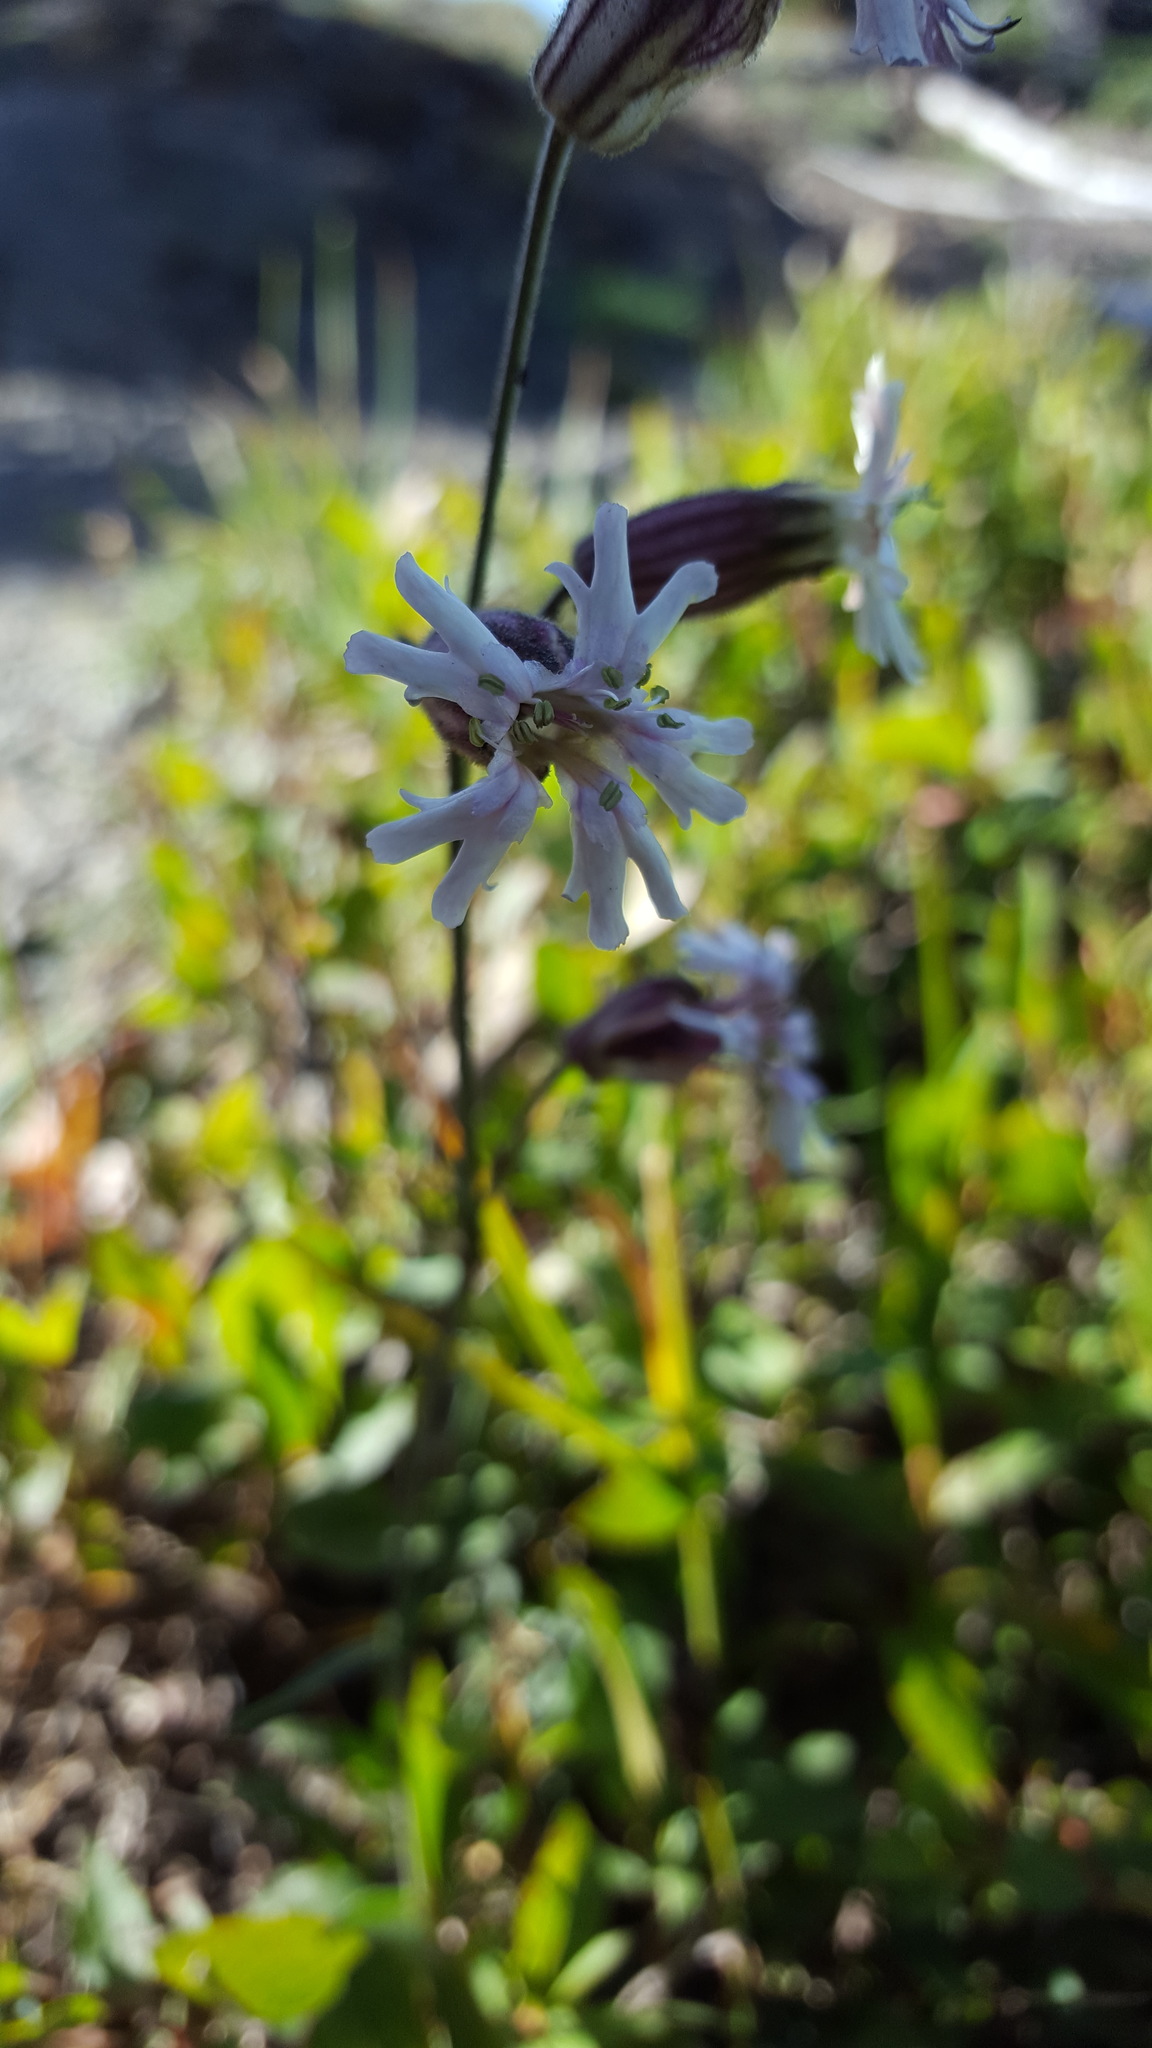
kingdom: Plantae
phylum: Tracheophyta
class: Magnoliopsida
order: Caryophyllales
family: Caryophyllaceae
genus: Silene
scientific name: Silene parryi
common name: Parry's campion
